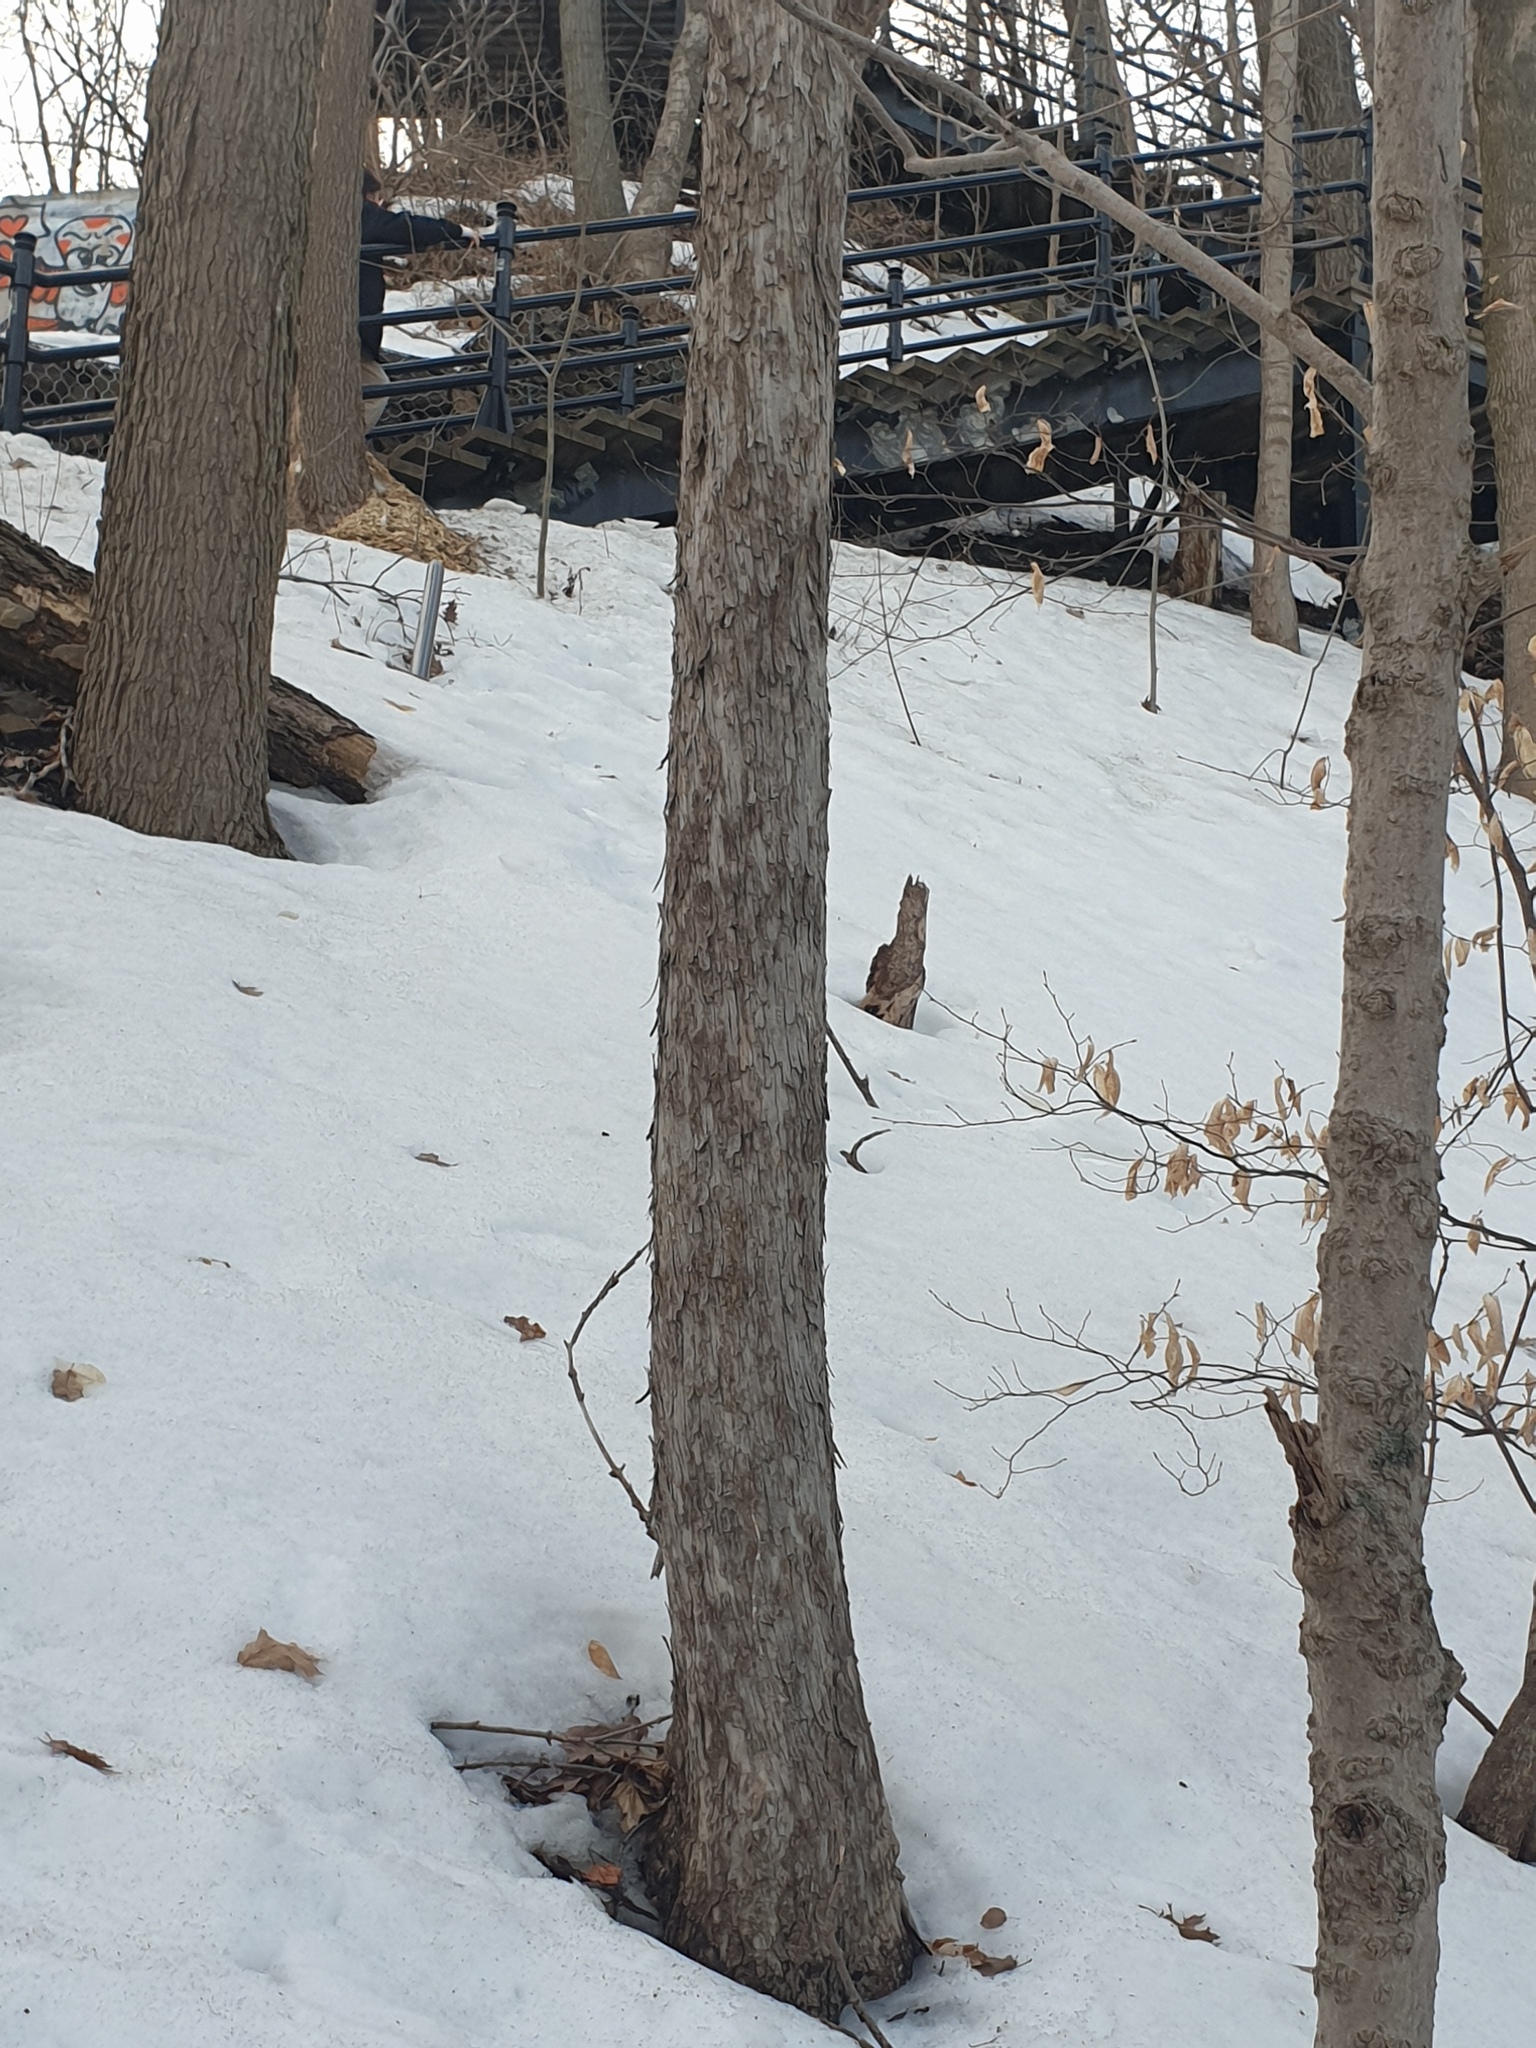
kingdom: Plantae
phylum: Tracheophyta
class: Magnoliopsida
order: Fagales
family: Betulaceae
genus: Ostrya
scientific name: Ostrya virginiana
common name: Ironwood
